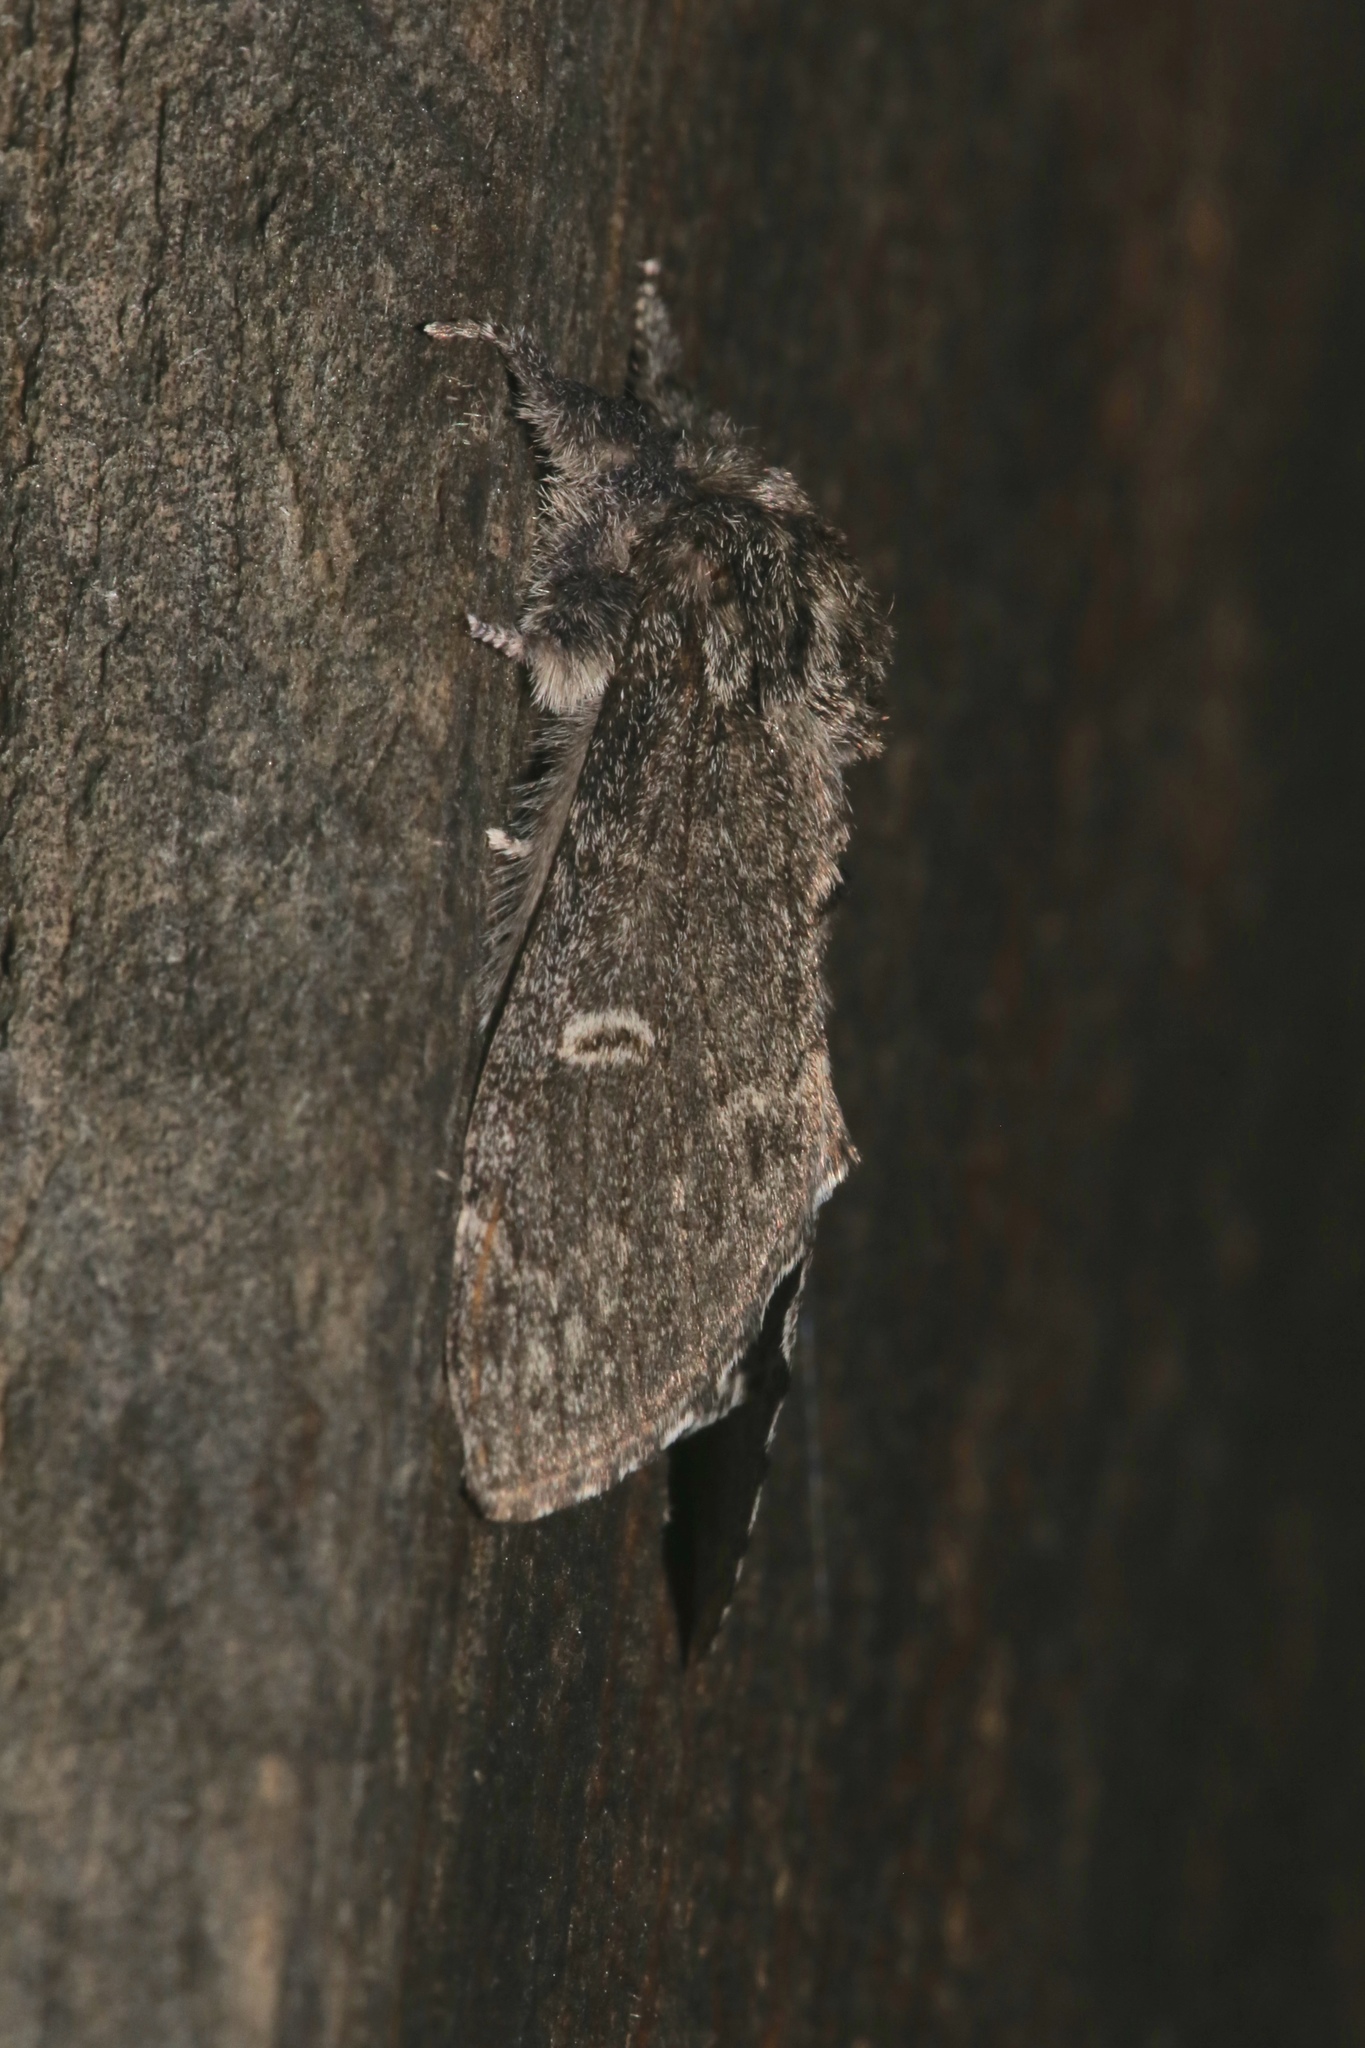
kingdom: Animalia
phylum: Arthropoda
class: Insecta
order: Lepidoptera
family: Notodontidae
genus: Notodonta
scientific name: Notodonta torva
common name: Large dark prominent
